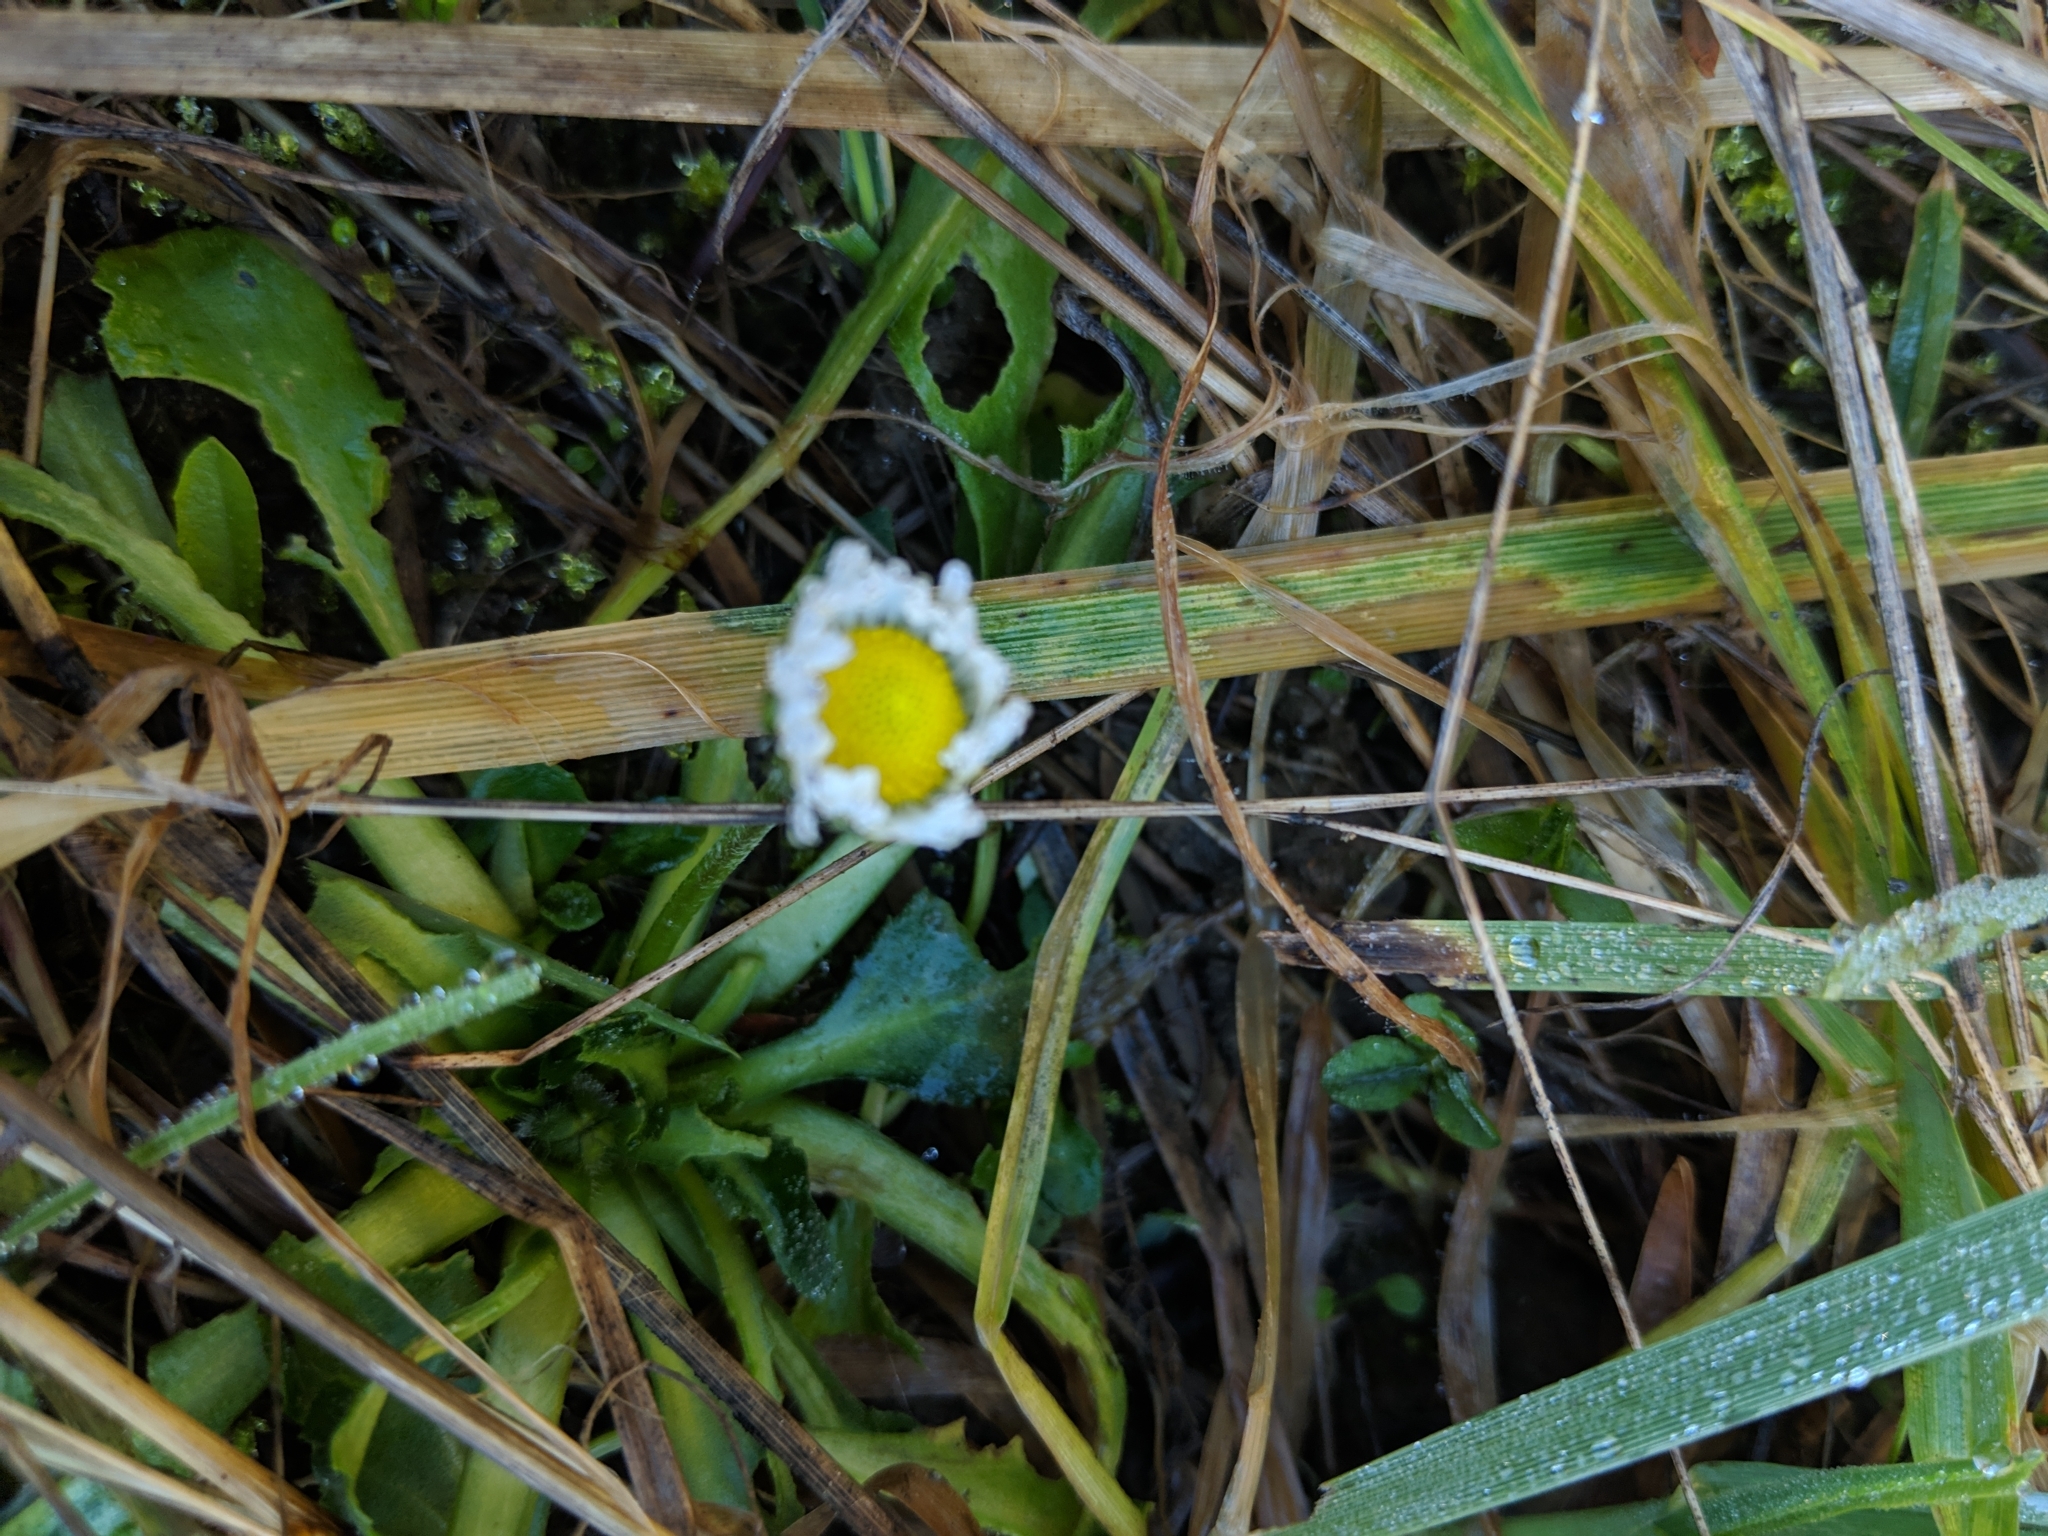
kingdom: Plantae
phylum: Tracheophyta
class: Magnoliopsida
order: Asterales
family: Asteraceae
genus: Bellis
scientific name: Bellis perennis
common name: Lawndaisy
